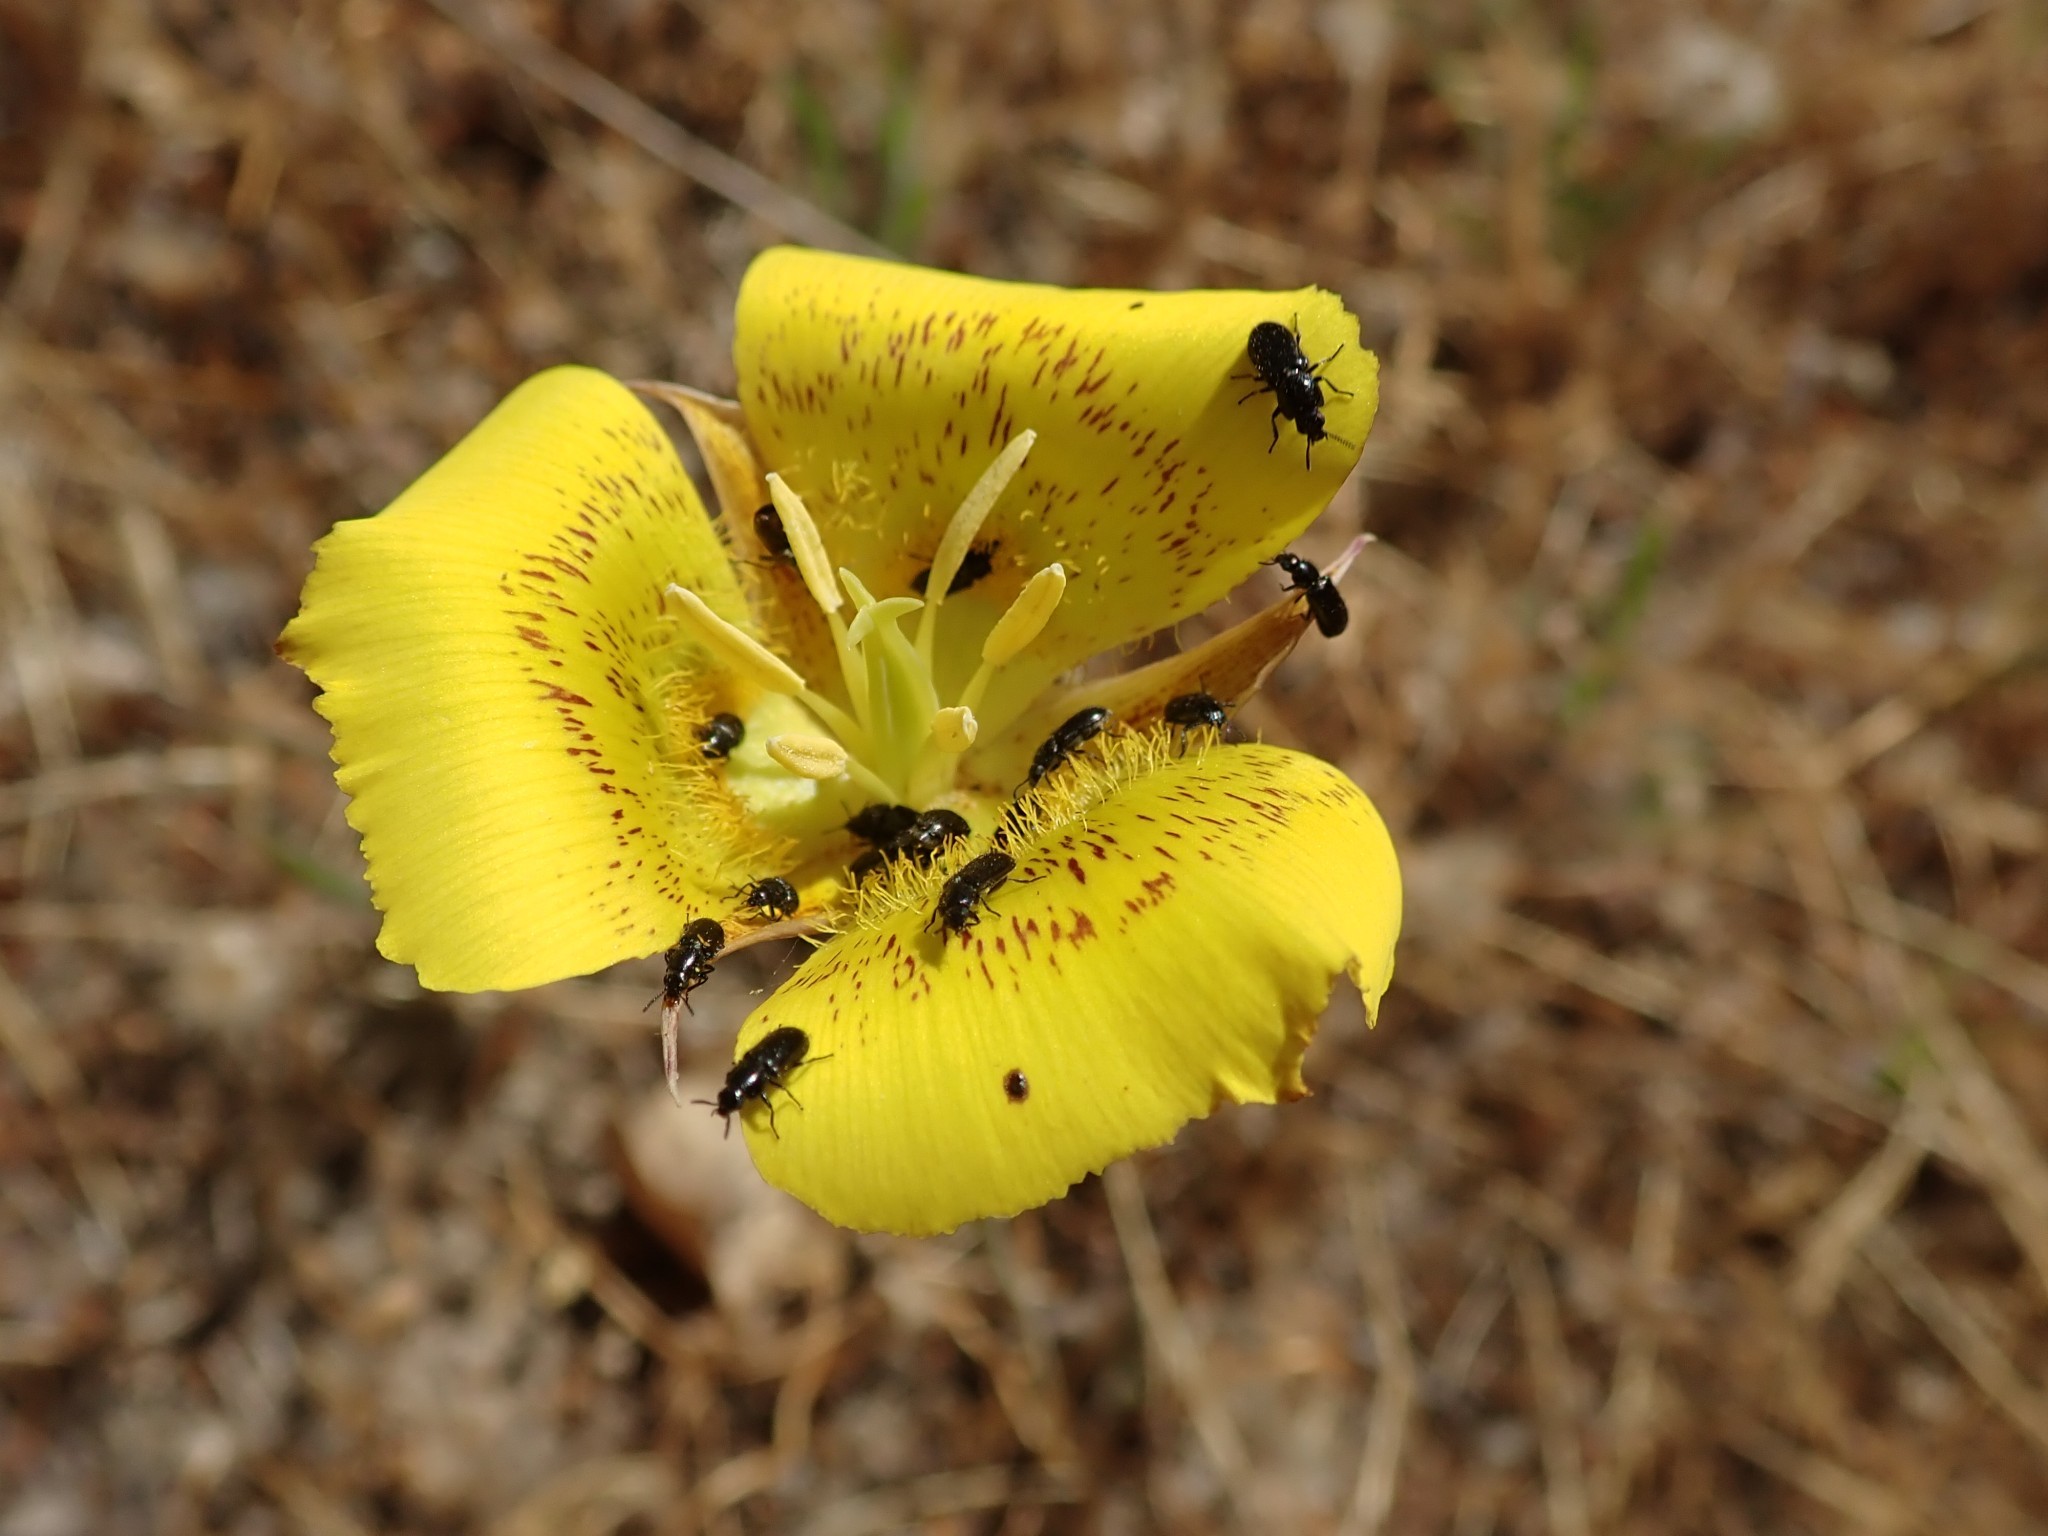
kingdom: Plantae
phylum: Tracheophyta
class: Liliopsida
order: Liliales
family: Liliaceae
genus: Calochortus
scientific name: Calochortus luteus
